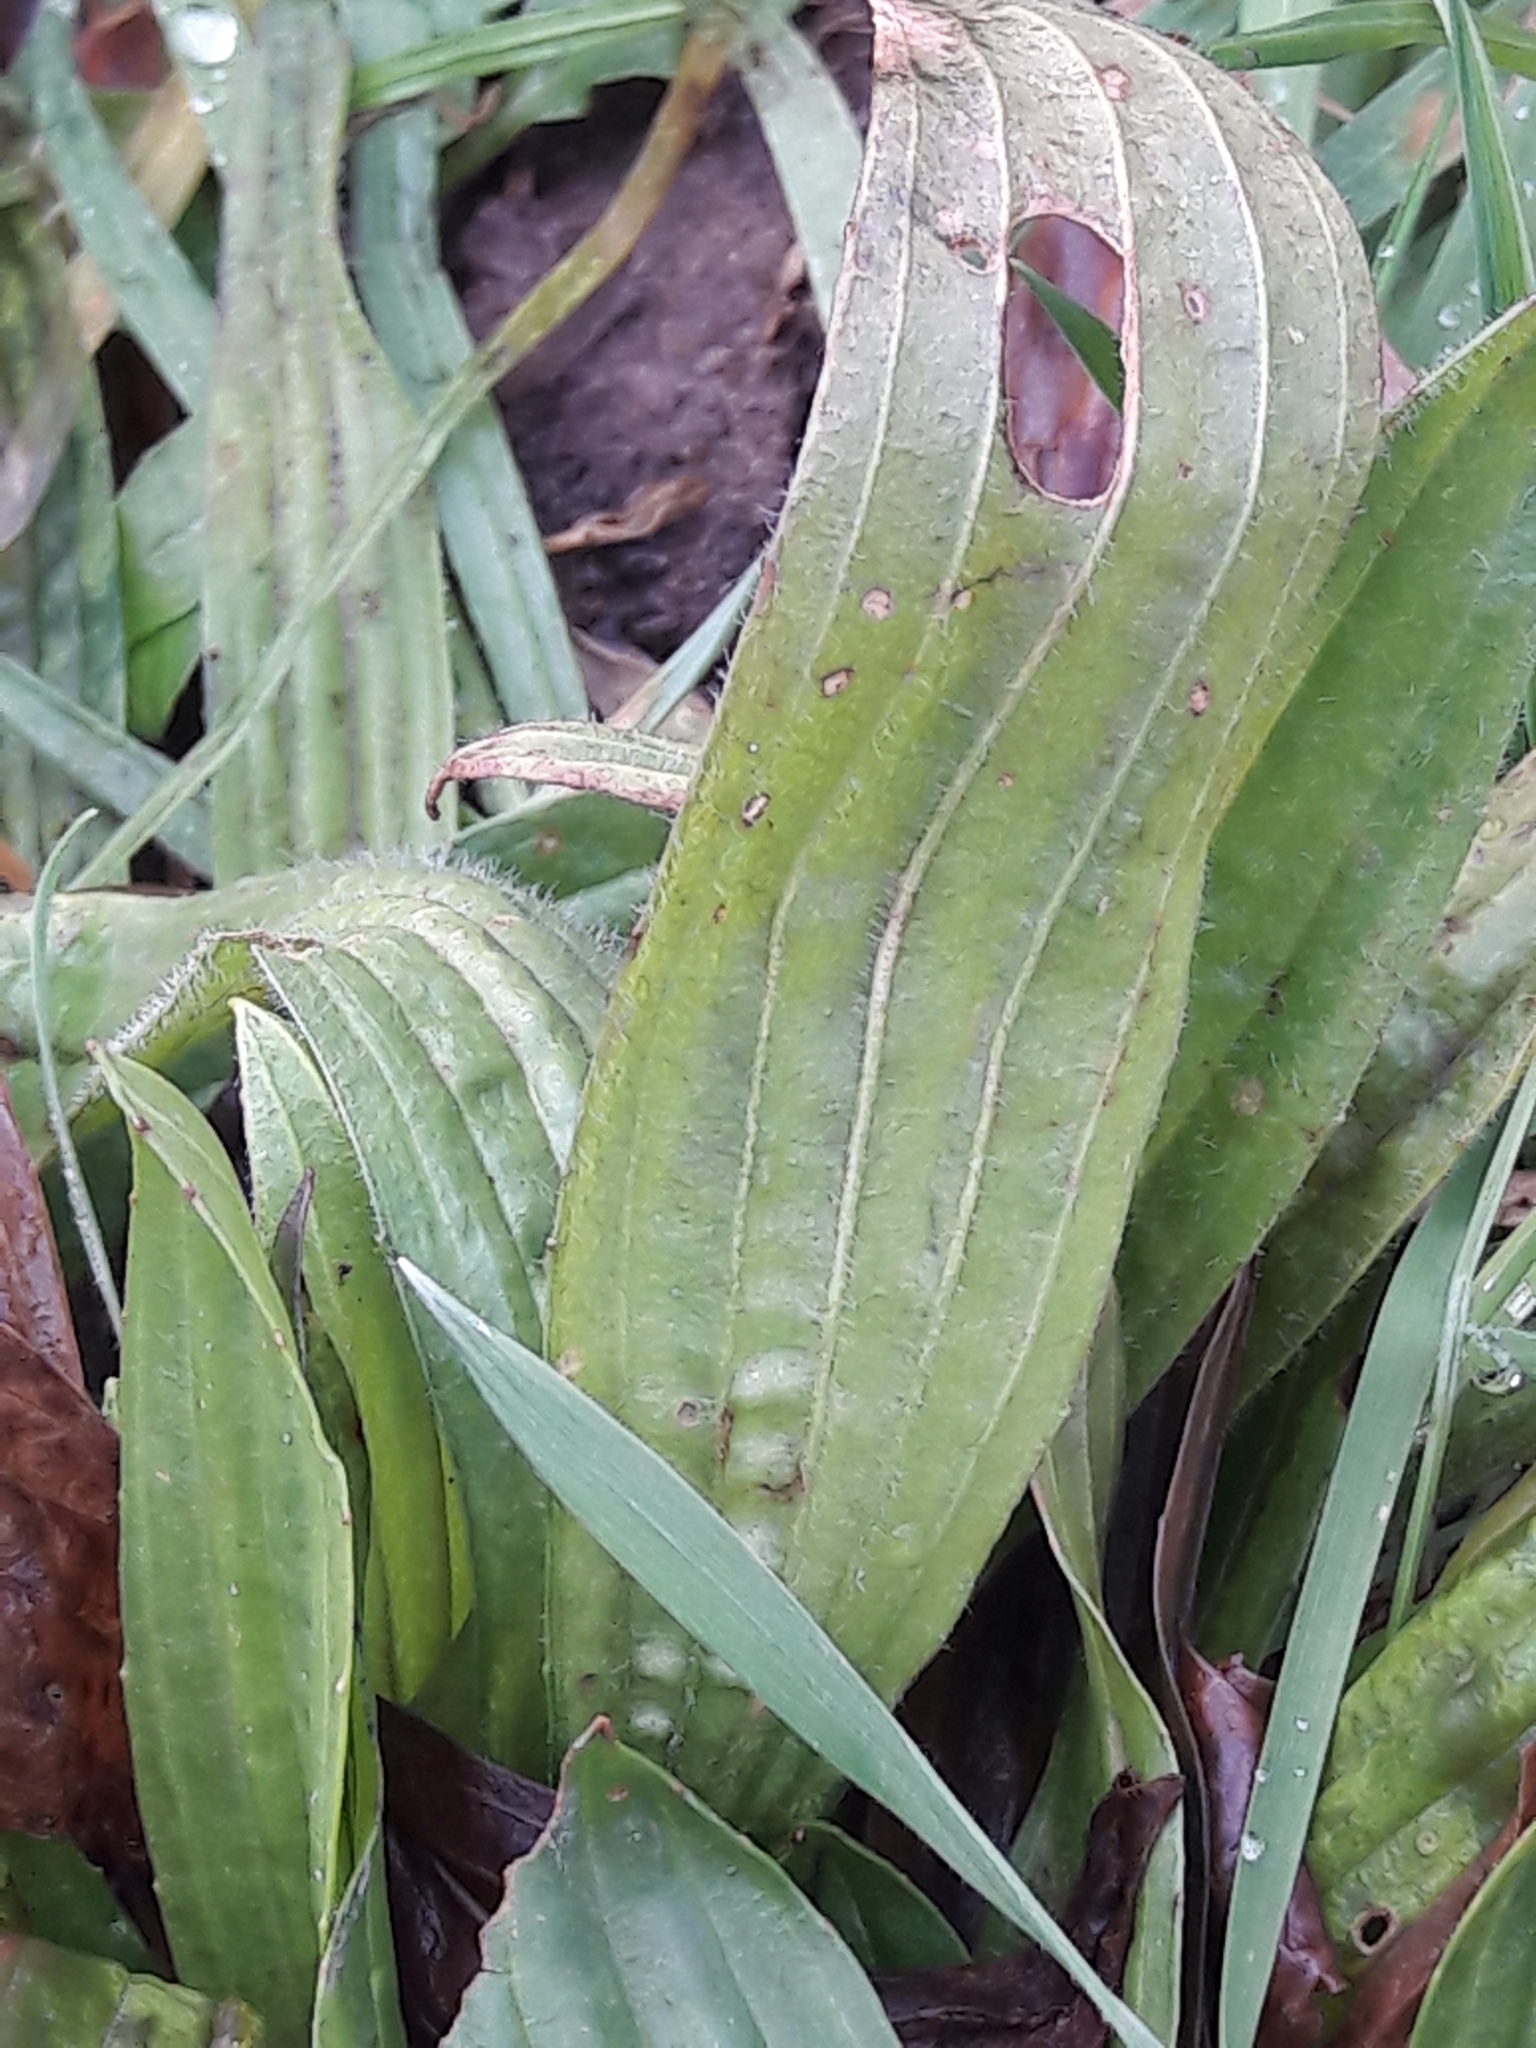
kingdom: Plantae
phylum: Tracheophyta
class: Magnoliopsida
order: Lamiales
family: Plantaginaceae
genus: Plantago
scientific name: Plantago lanceolata
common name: Ribwort plantain
